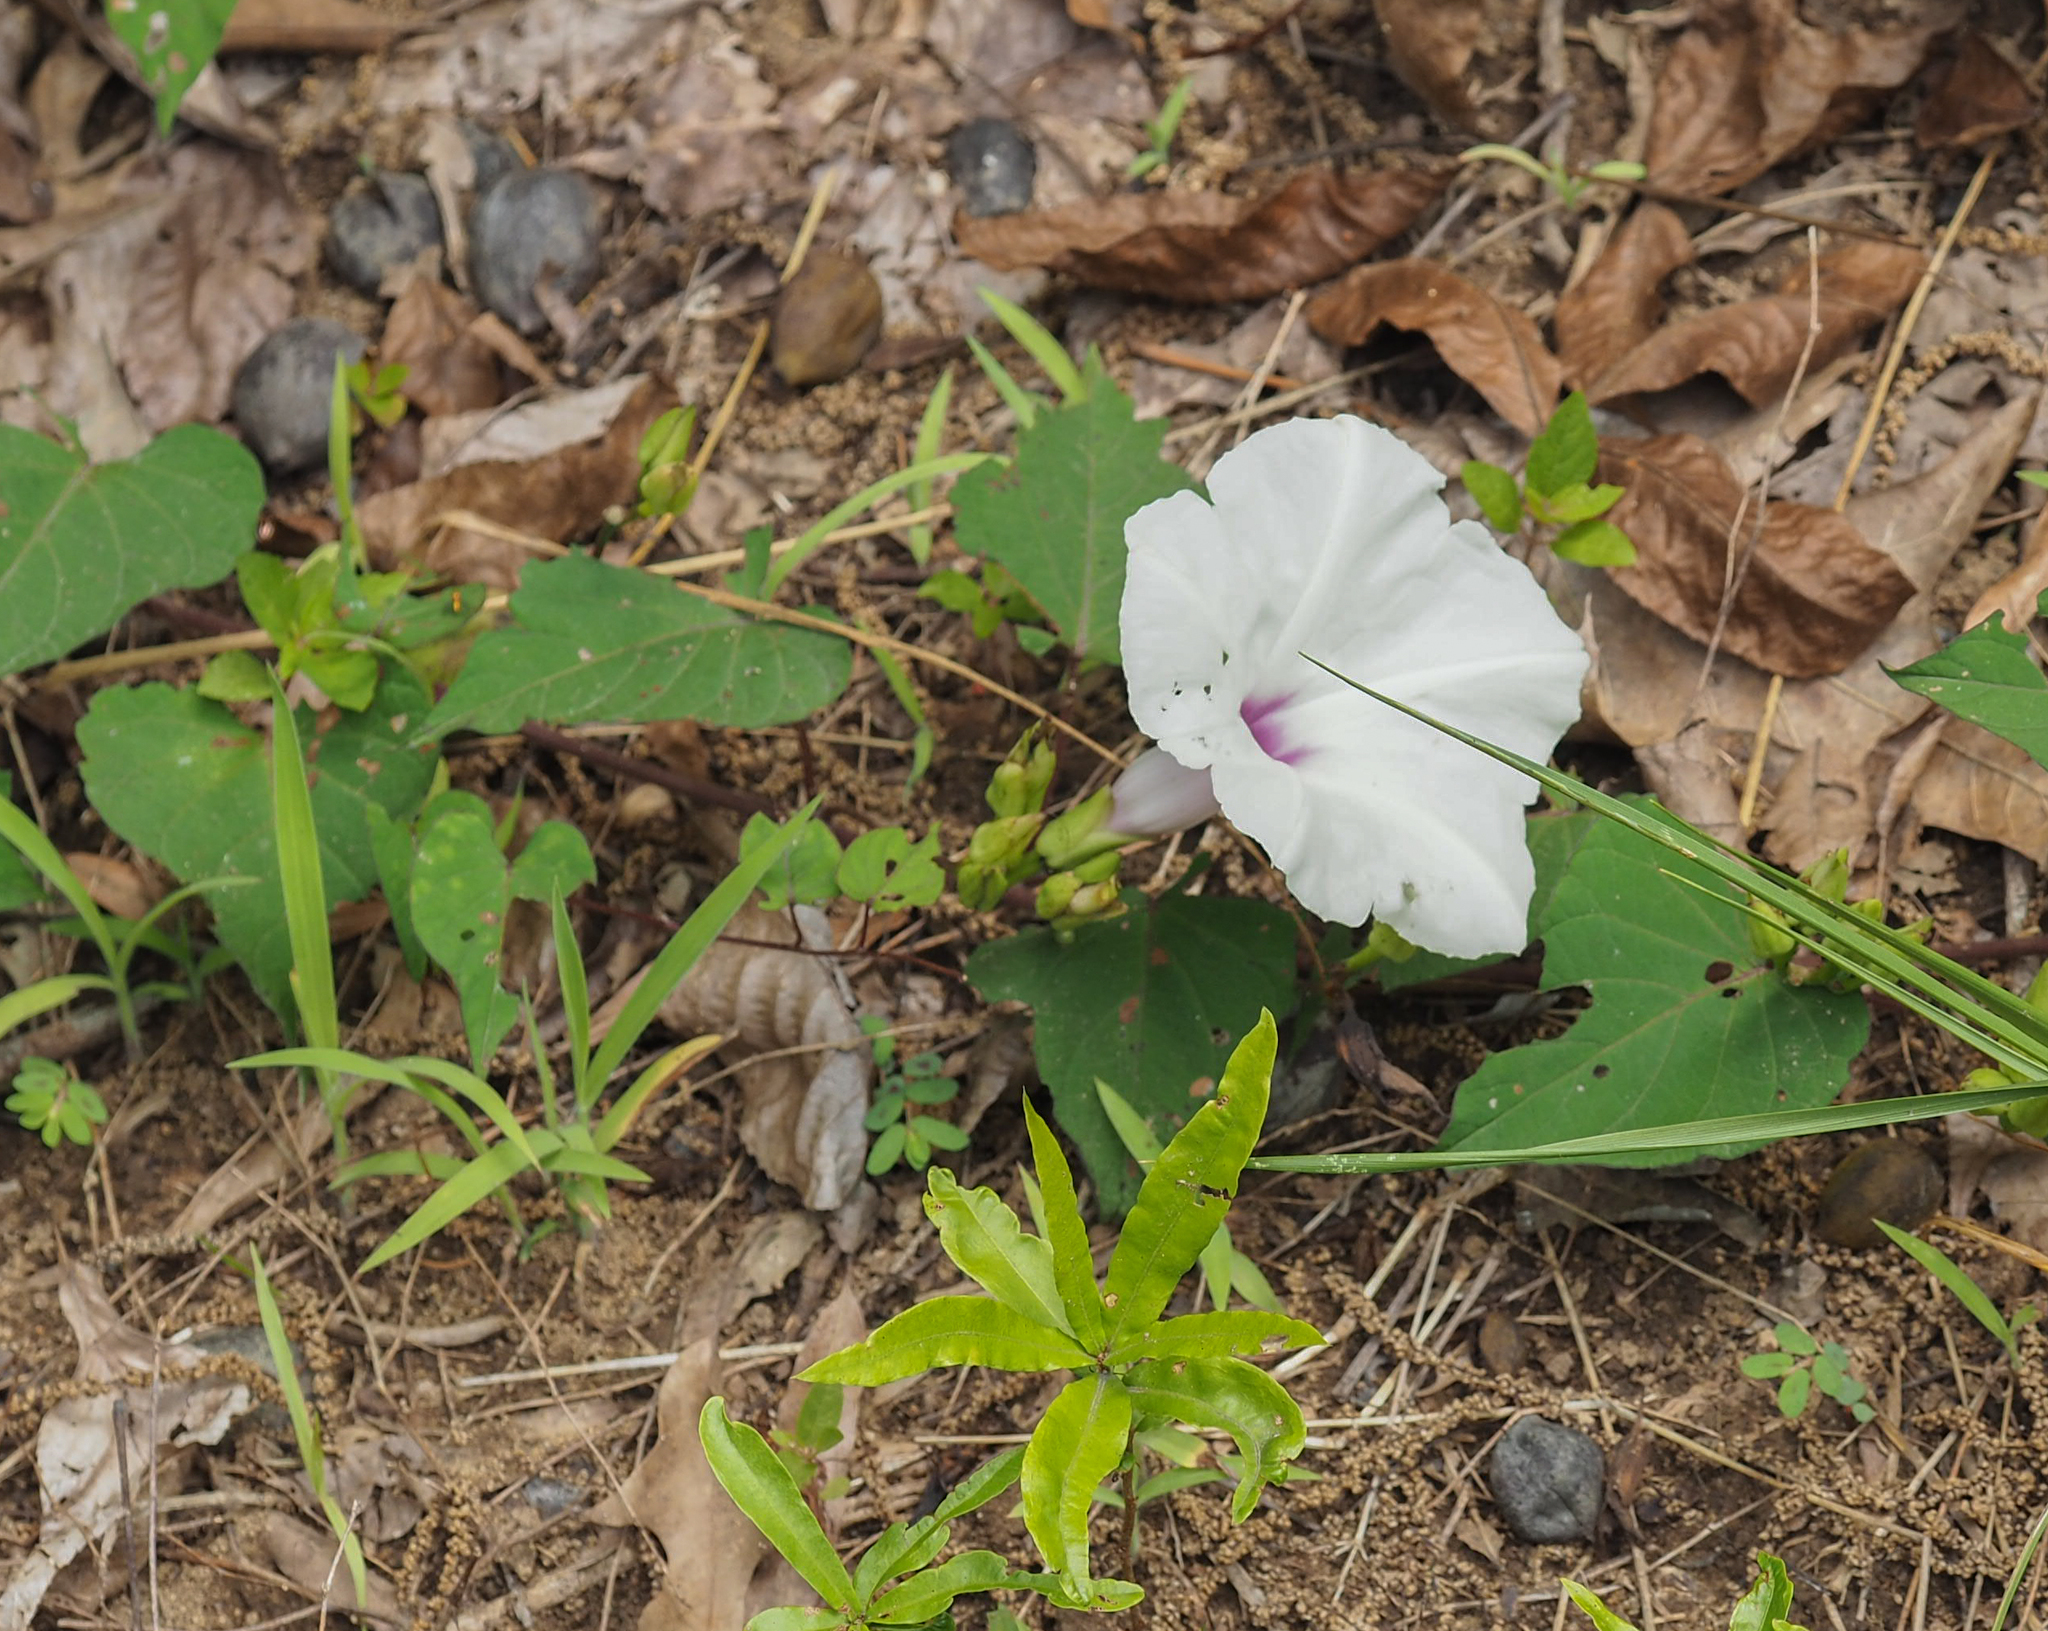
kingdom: Plantae
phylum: Tracheophyta
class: Magnoliopsida
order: Solanales
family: Convolvulaceae
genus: Ipomoea
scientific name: Ipomoea pandurata
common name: Man-of-the-earth
